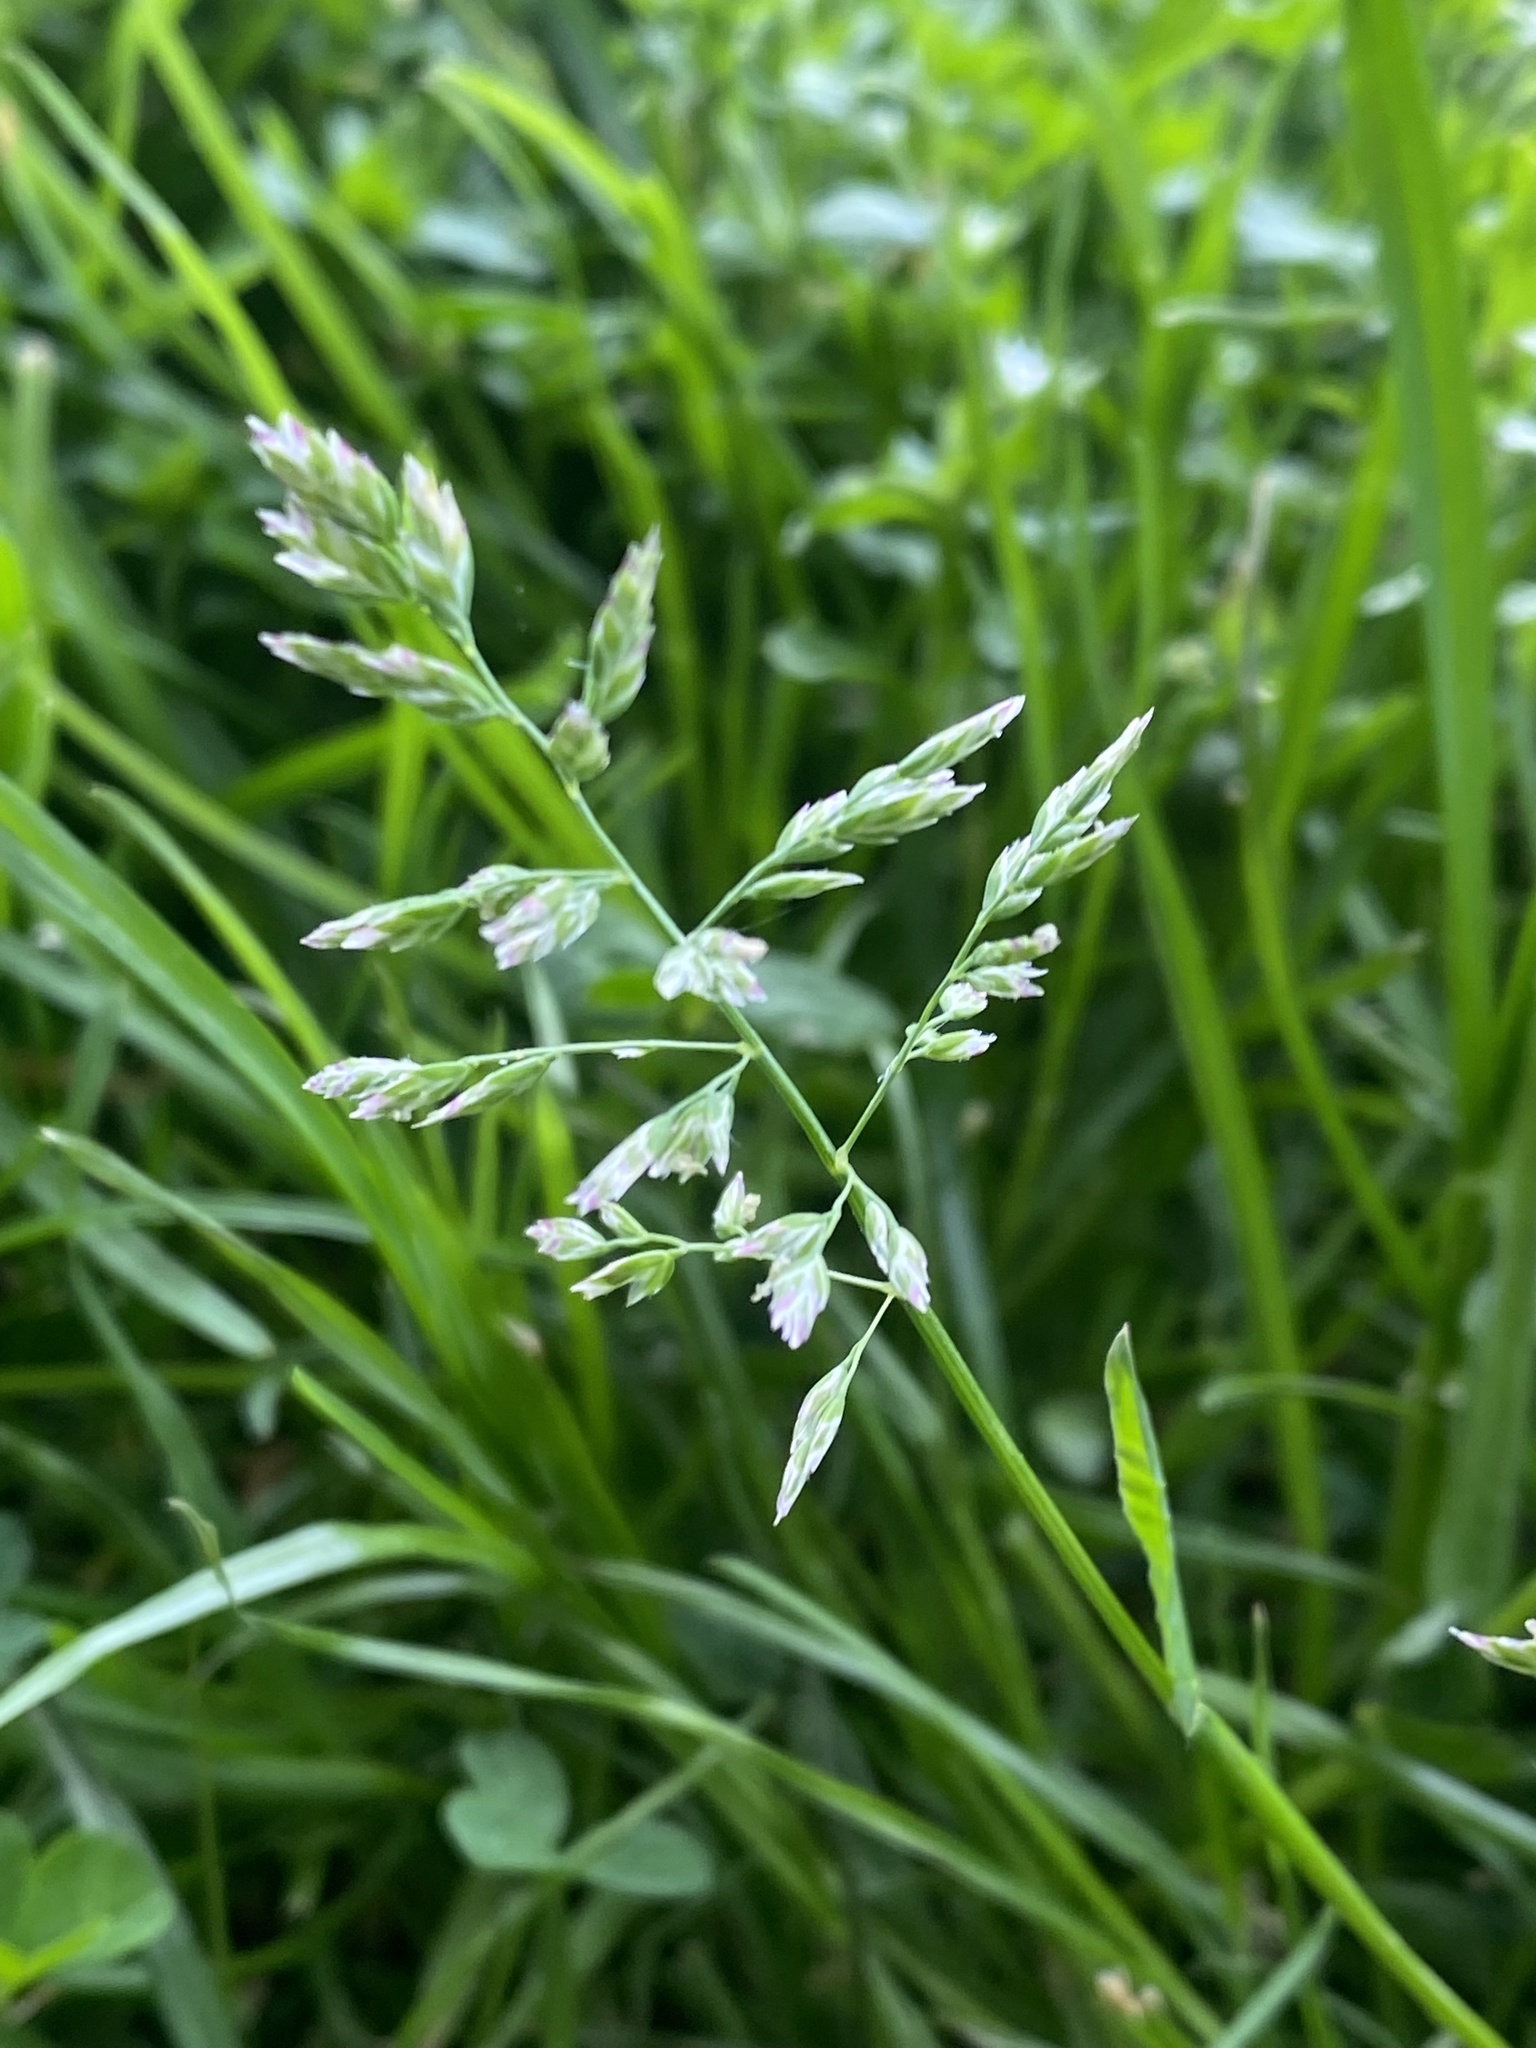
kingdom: Plantae
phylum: Tracheophyta
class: Liliopsida
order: Poales
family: Poaceae
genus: Poa
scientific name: Poa annua
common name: Annual bluegrass
